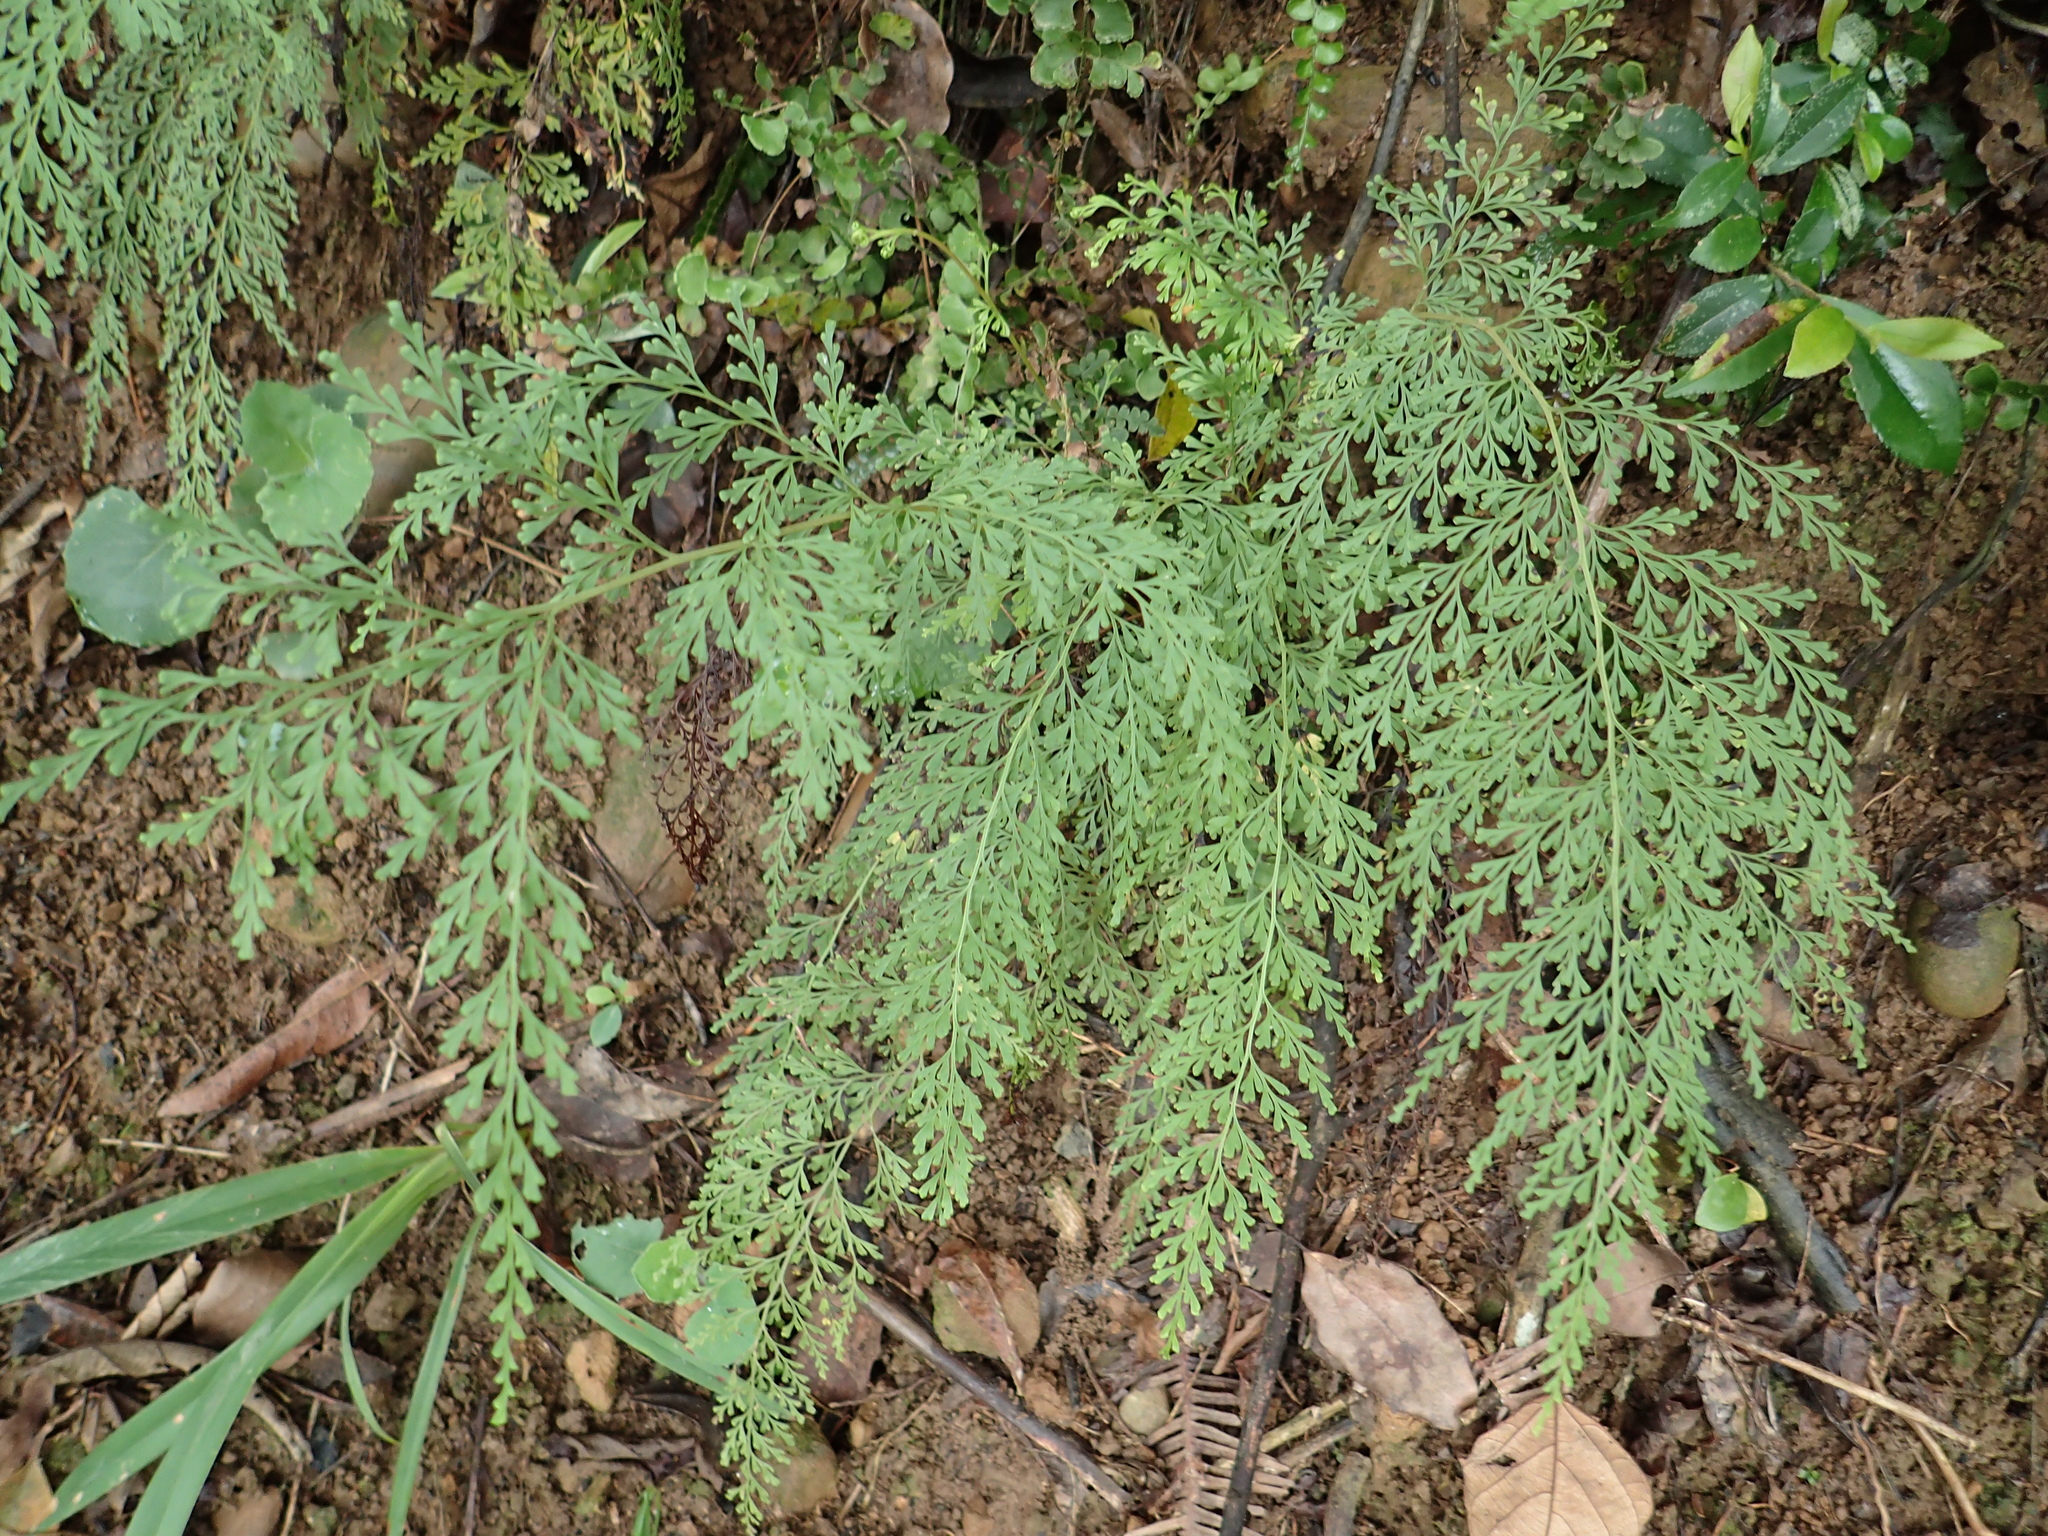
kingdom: Plantae
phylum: Tracheophyta
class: Polypodiopsida
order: Polypodiales
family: Lindsaeaceae
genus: Odontosoria
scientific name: Odontosoria chinensis
